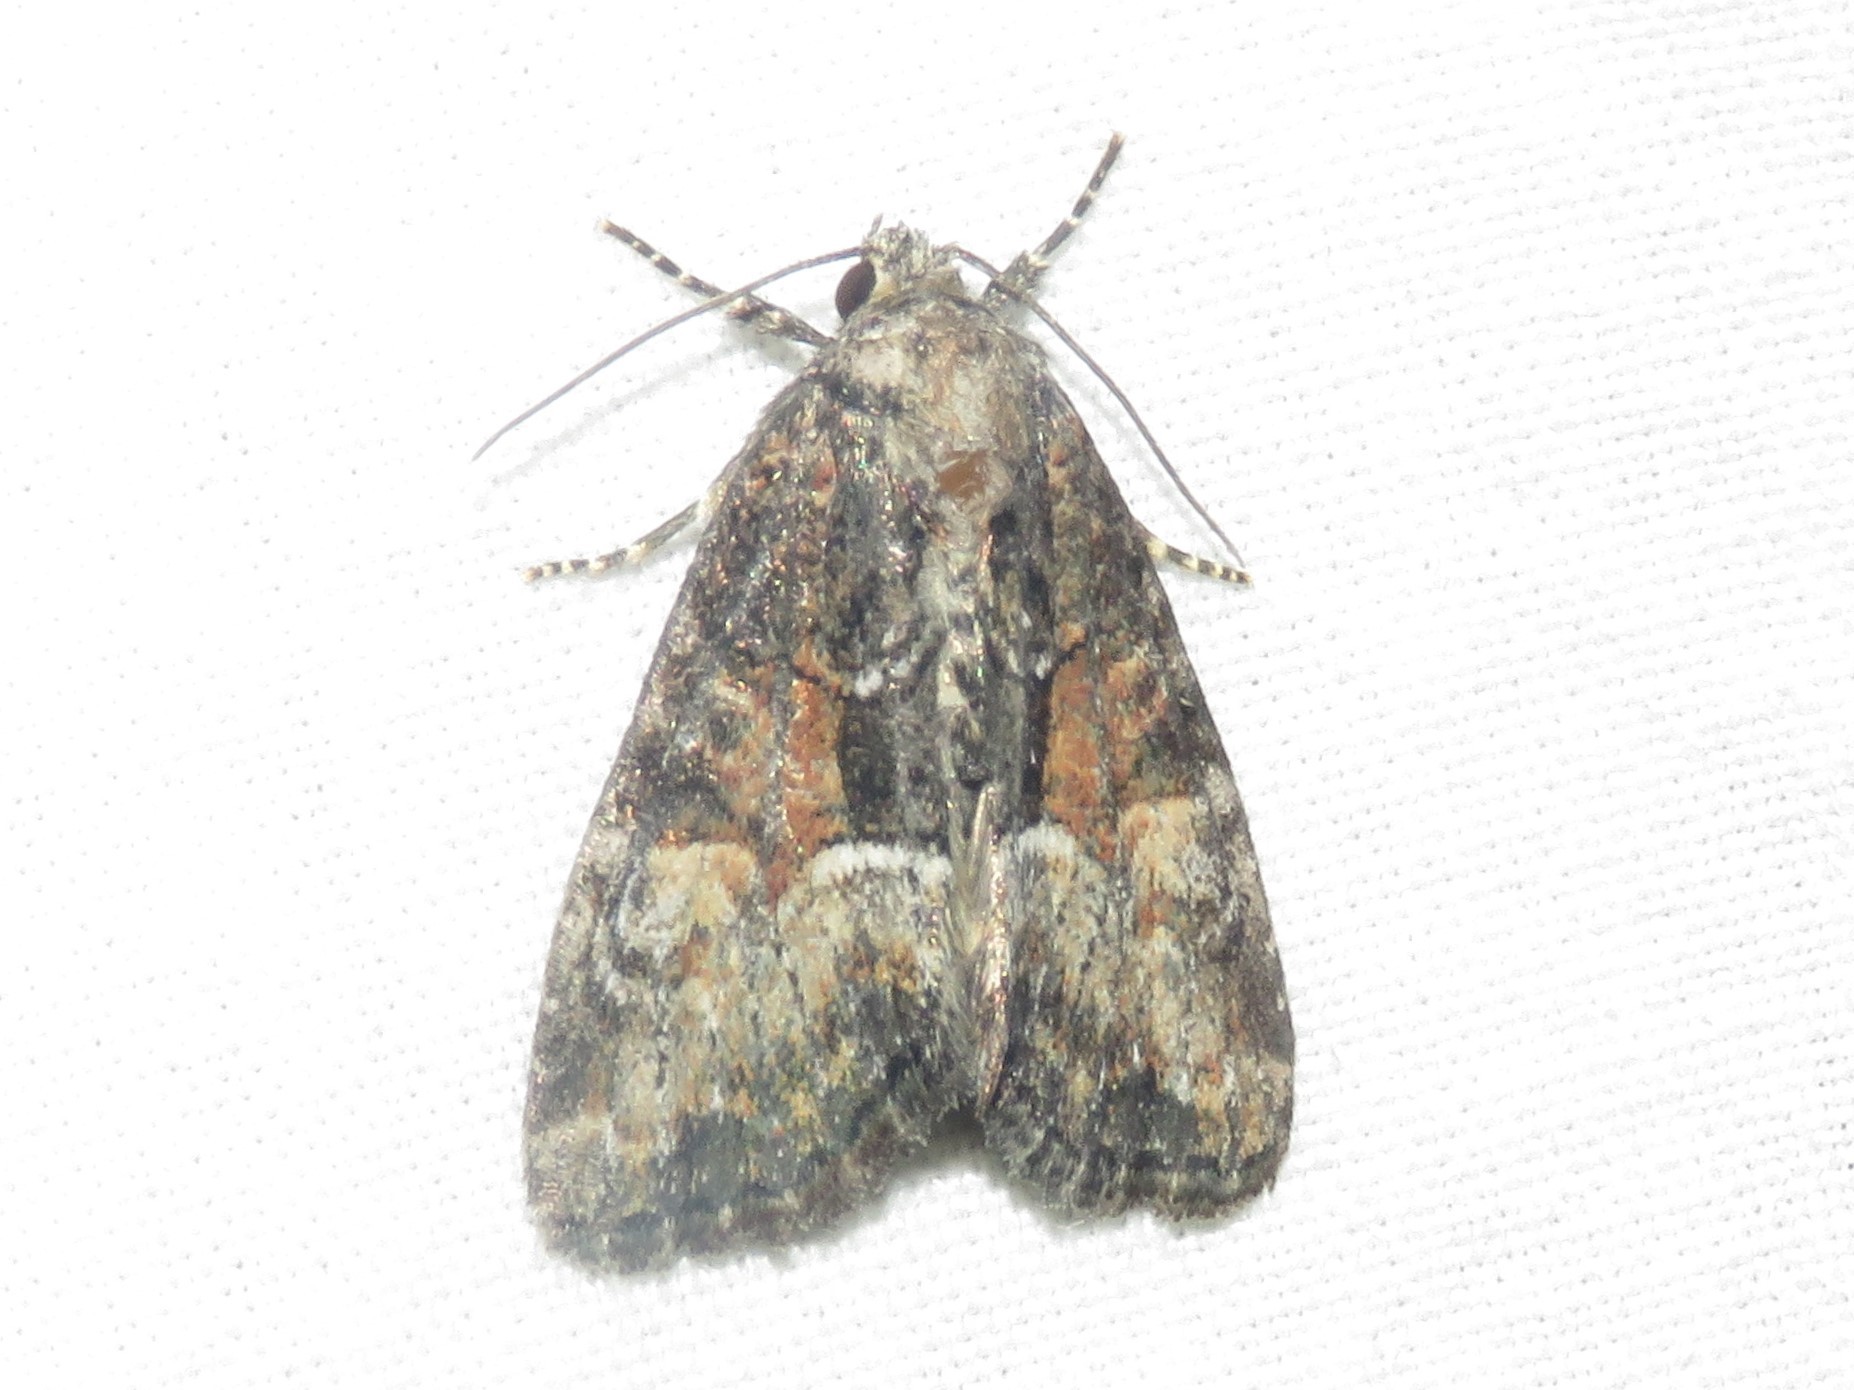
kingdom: Animalia
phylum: Arthropoda
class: Insecta
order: Lepidoptera
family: Noctuidae
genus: Neoligia
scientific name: Neoligia subjuncta
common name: Connected brocade
